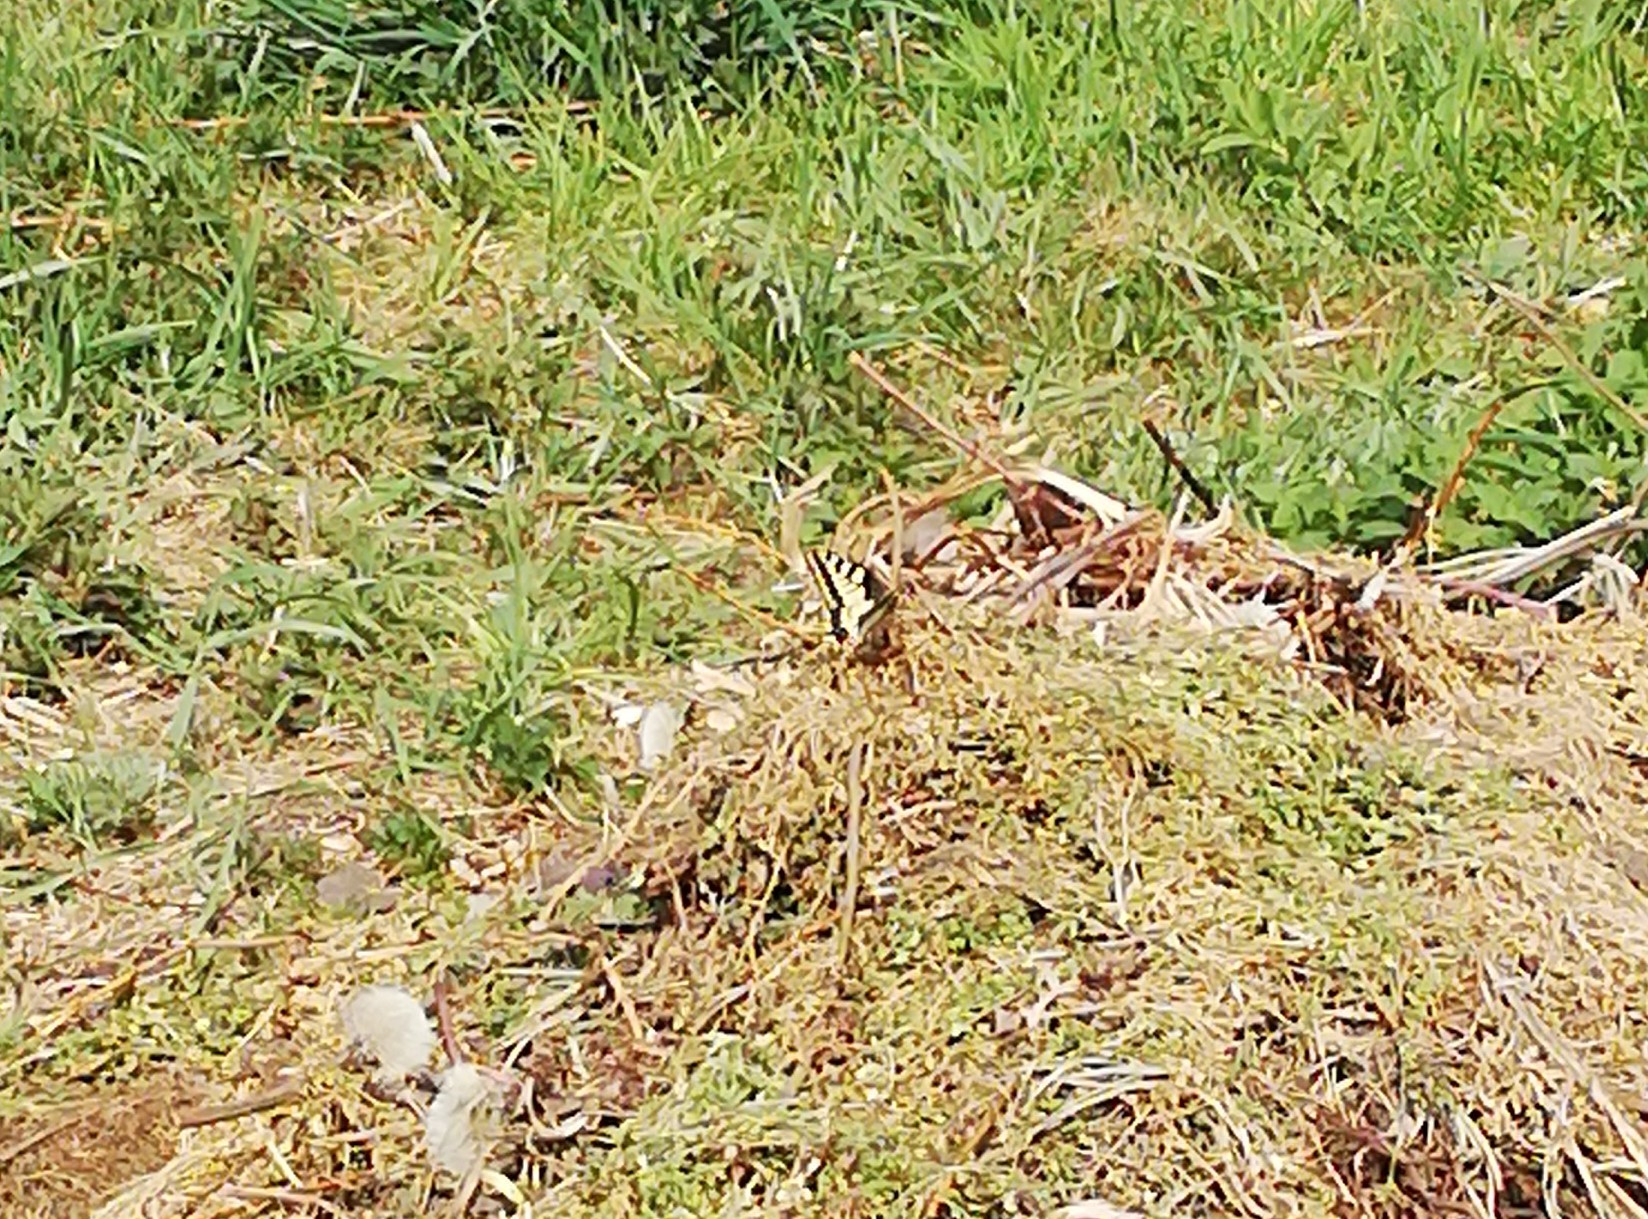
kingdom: Animalia
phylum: Arthropoda
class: Insecta
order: Lepidoptera
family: Papilionidae
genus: Papilio
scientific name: Papilio machaon
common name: Swallowtail
